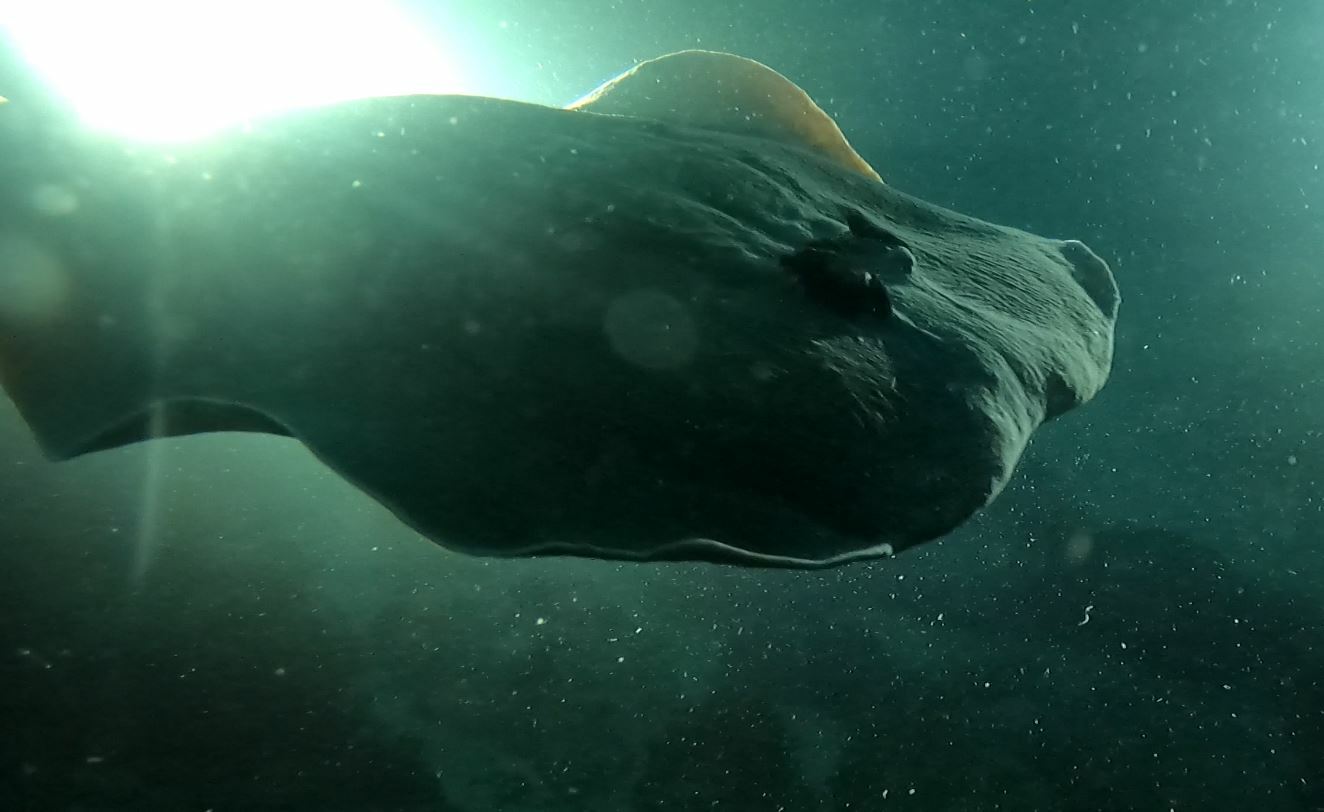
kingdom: Animalia
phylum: Chordata
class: Elasmobranchii
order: Torpediniformes
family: Hypnidae
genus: Hypnos
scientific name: Hypnos monopterygius
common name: Australian numbfish
